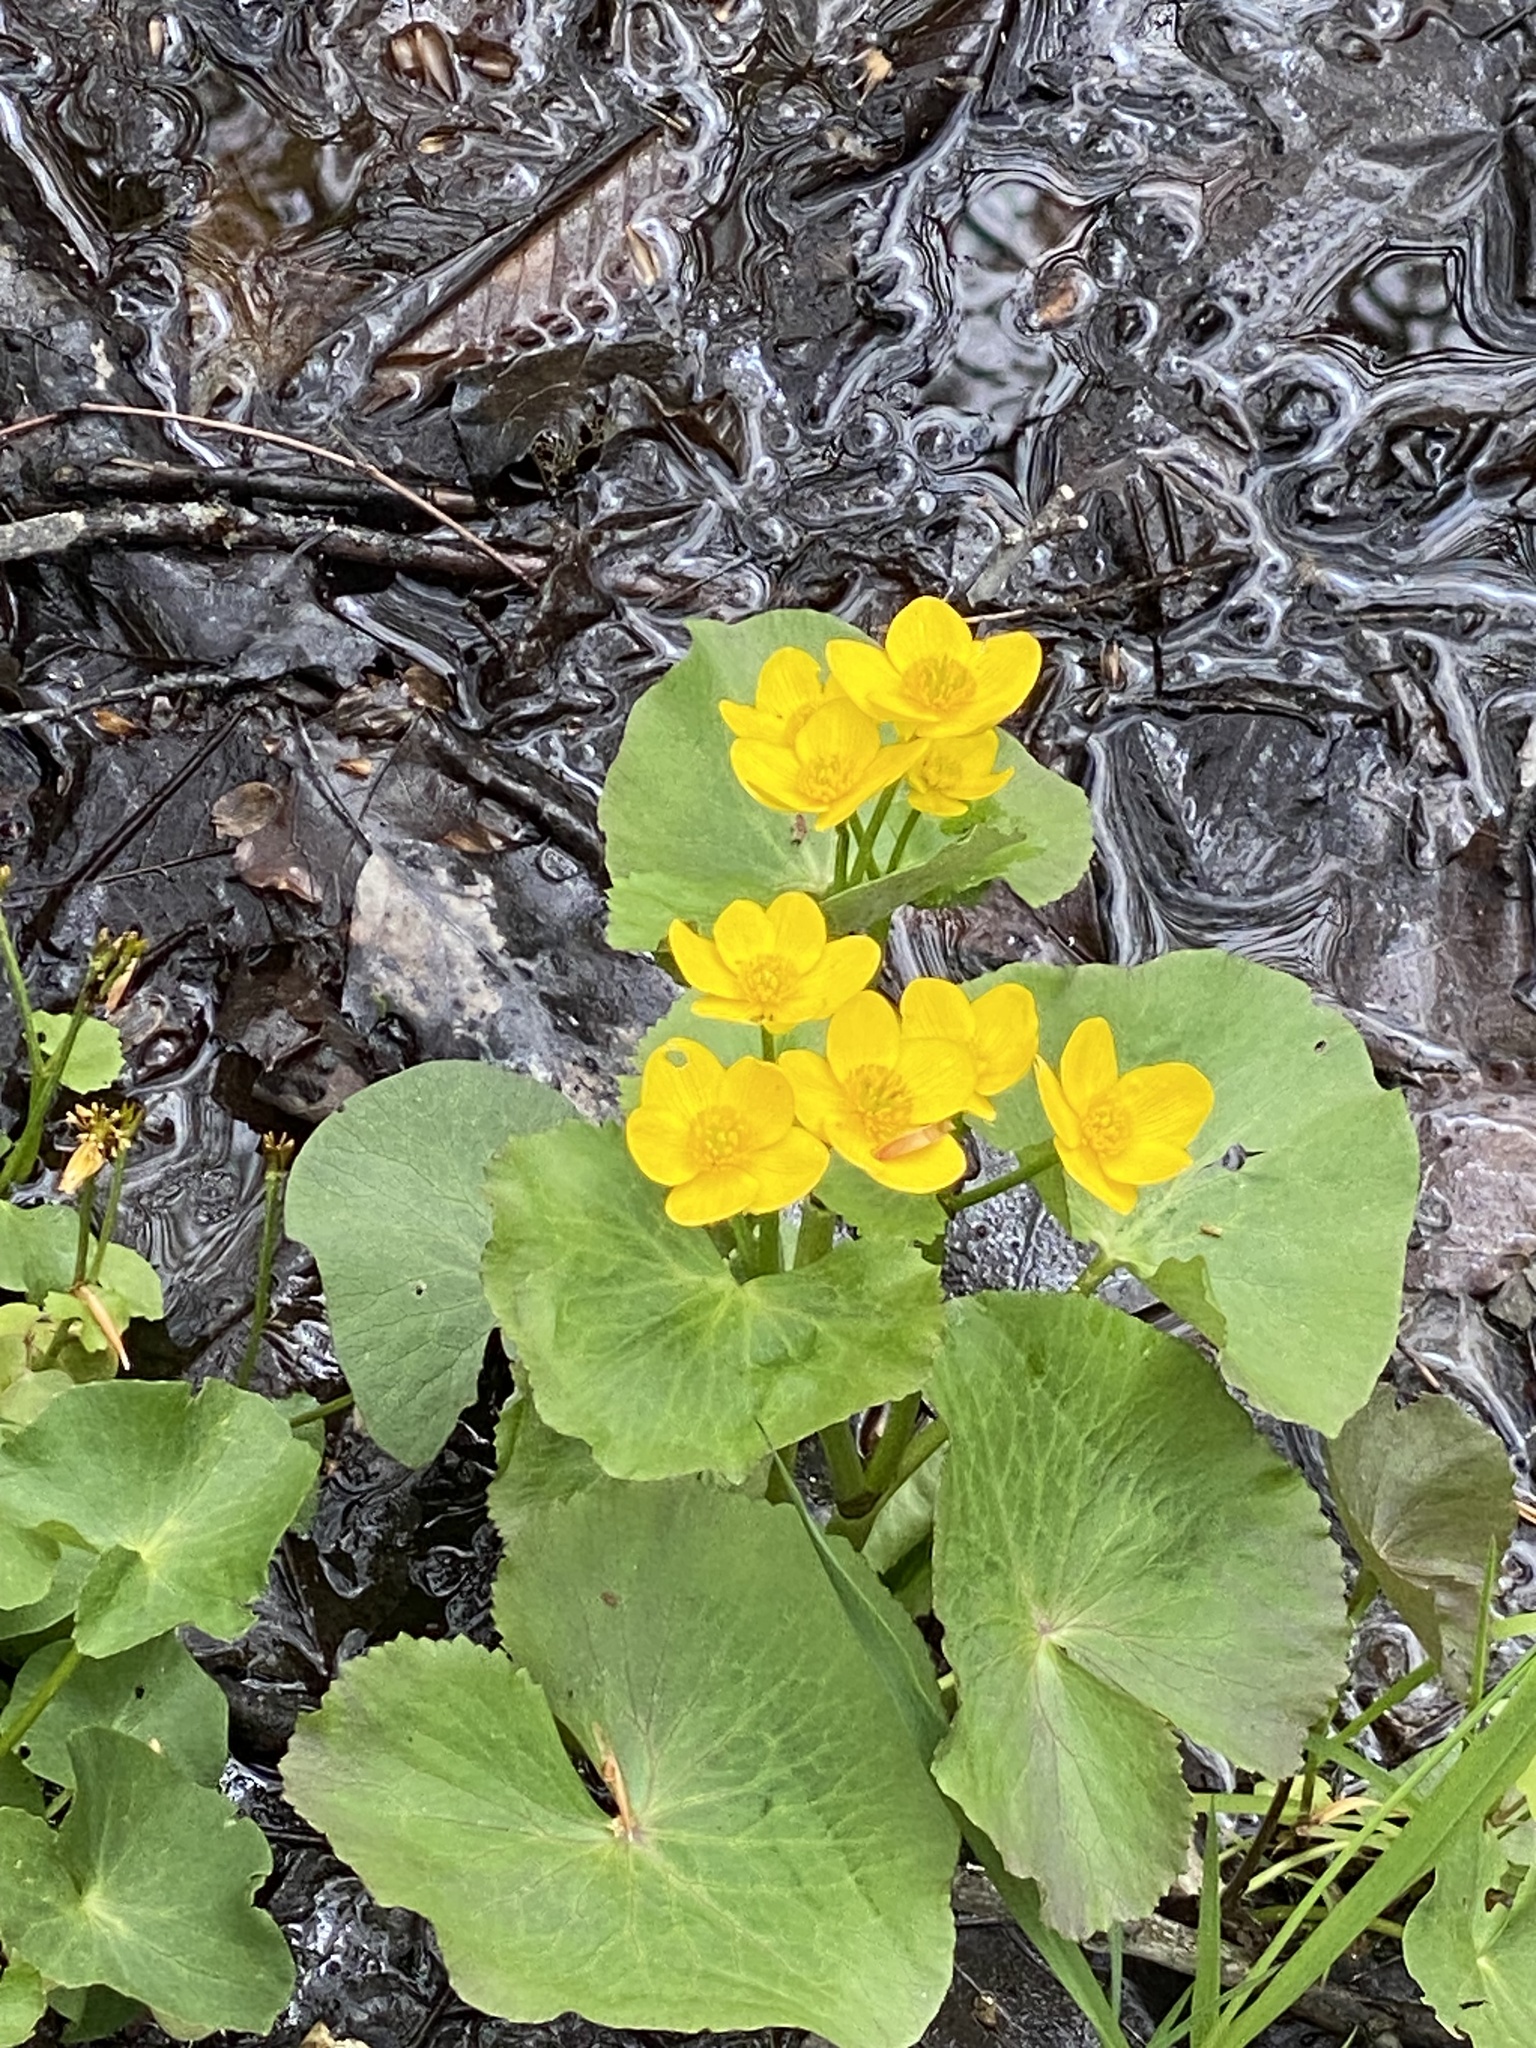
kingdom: Plantae
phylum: Tracheophyta
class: Magnoliopsida
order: Ranunculales
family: Ranunculaceae
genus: Caltha
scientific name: Caltha palustris
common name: Marsh marigold
